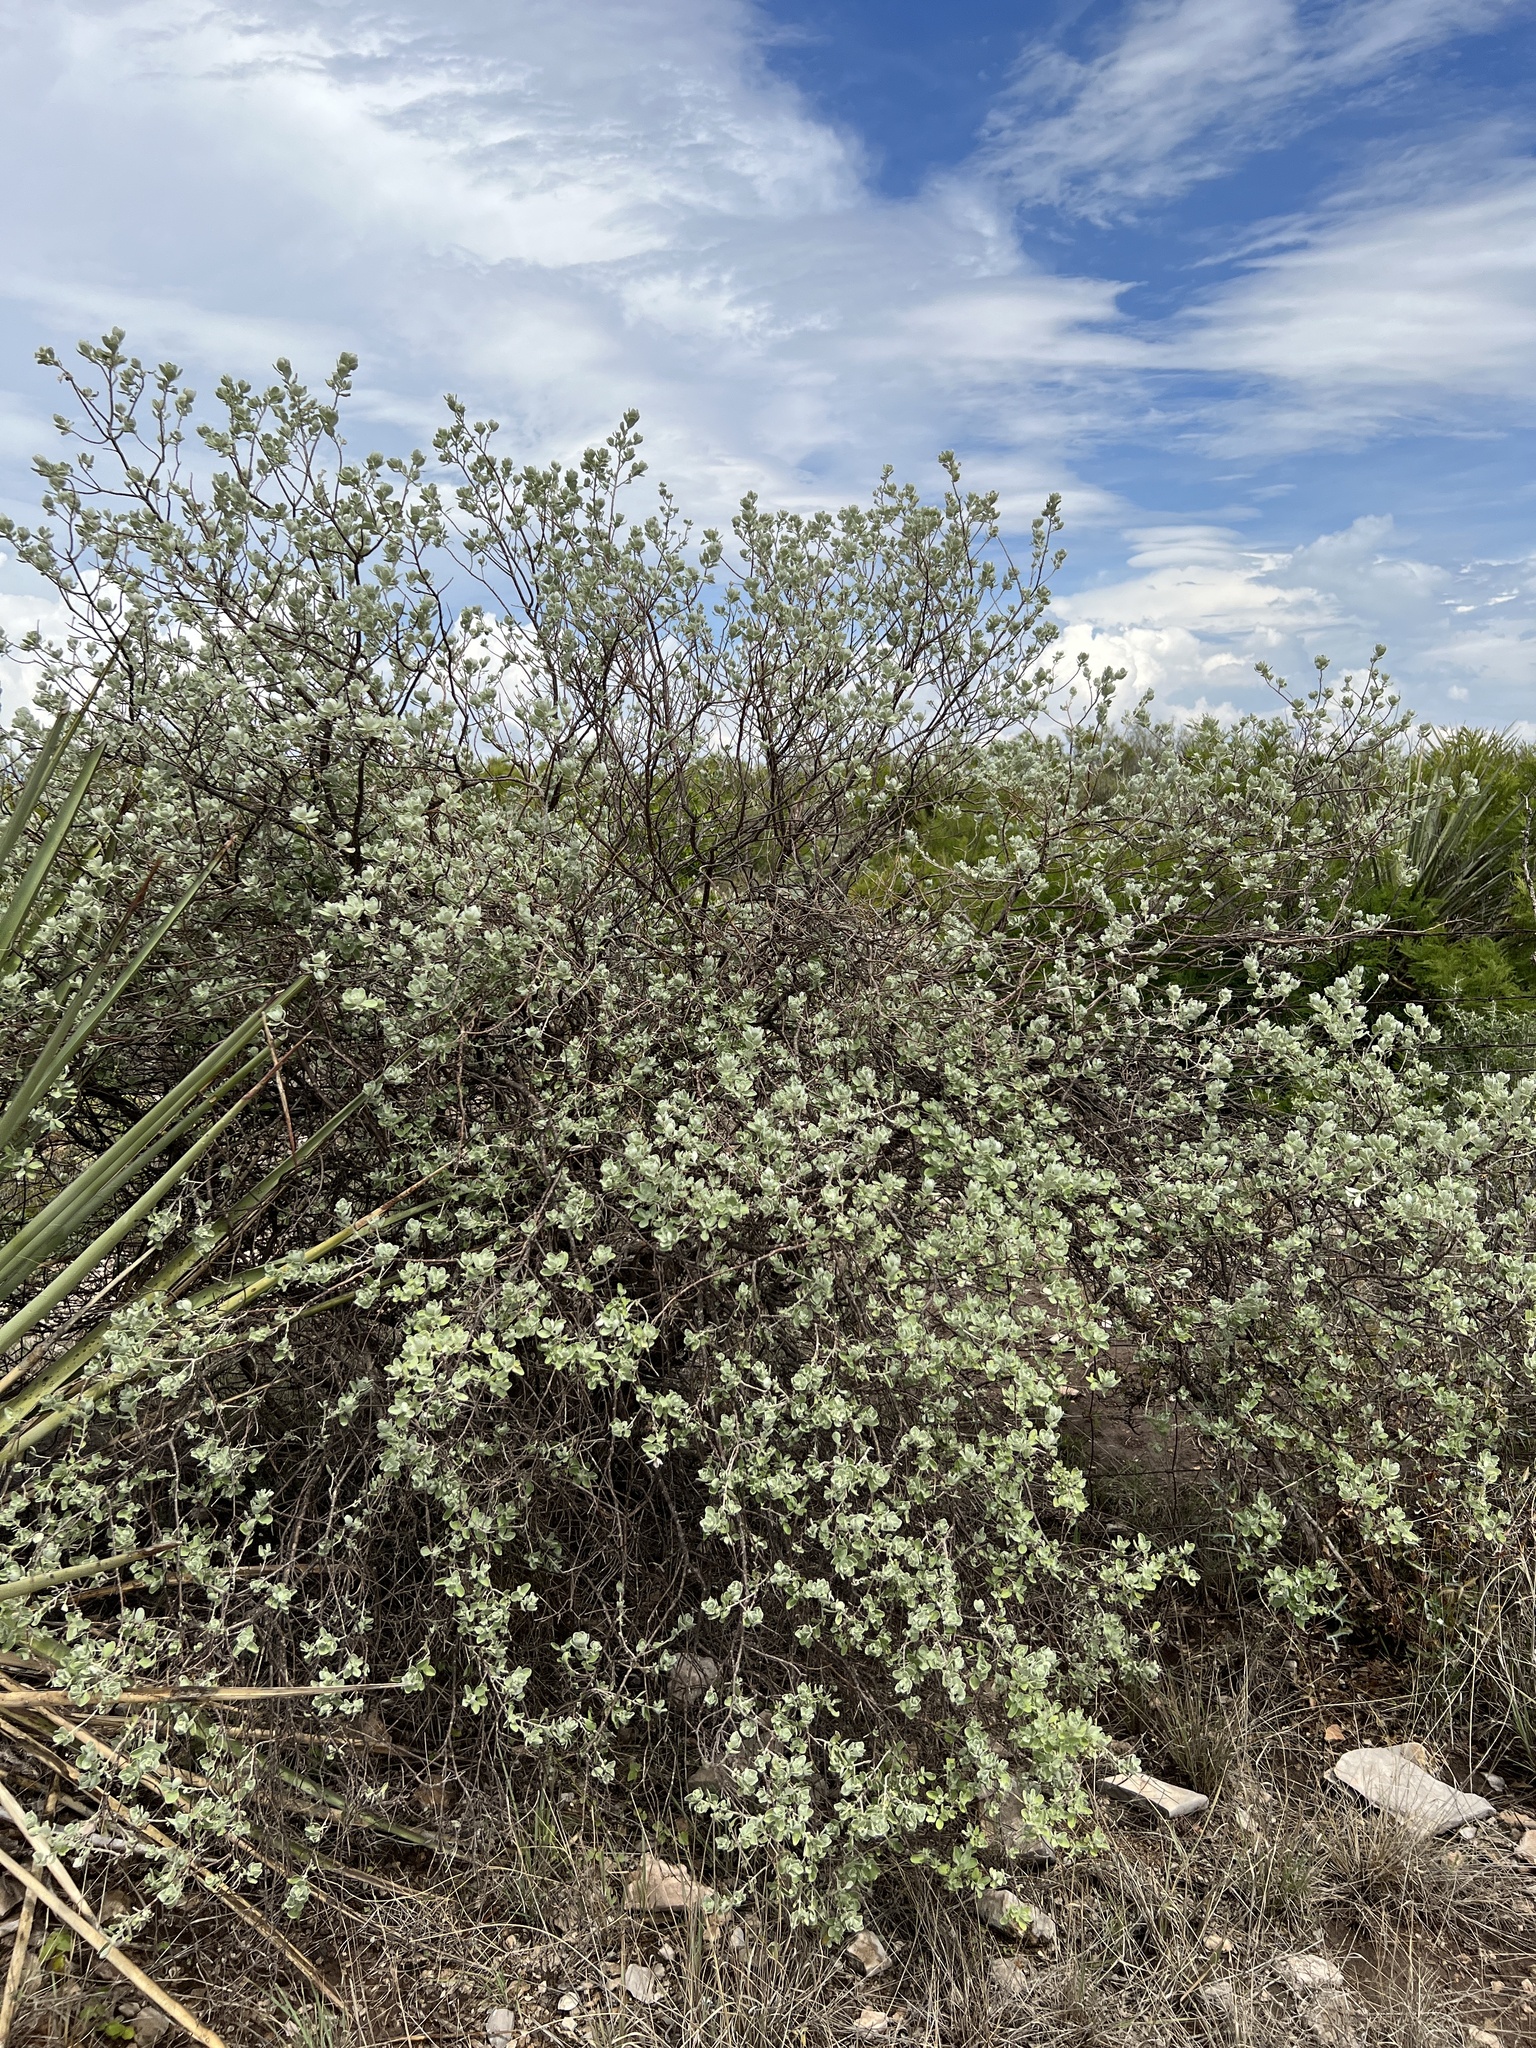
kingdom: Plantae
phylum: Tracheophyta
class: Magnoliopsida
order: Lamiales
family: Scrophulariaceae
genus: Leucophyllum
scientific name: Leucophyllum frutescens
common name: Texas silverleaf
